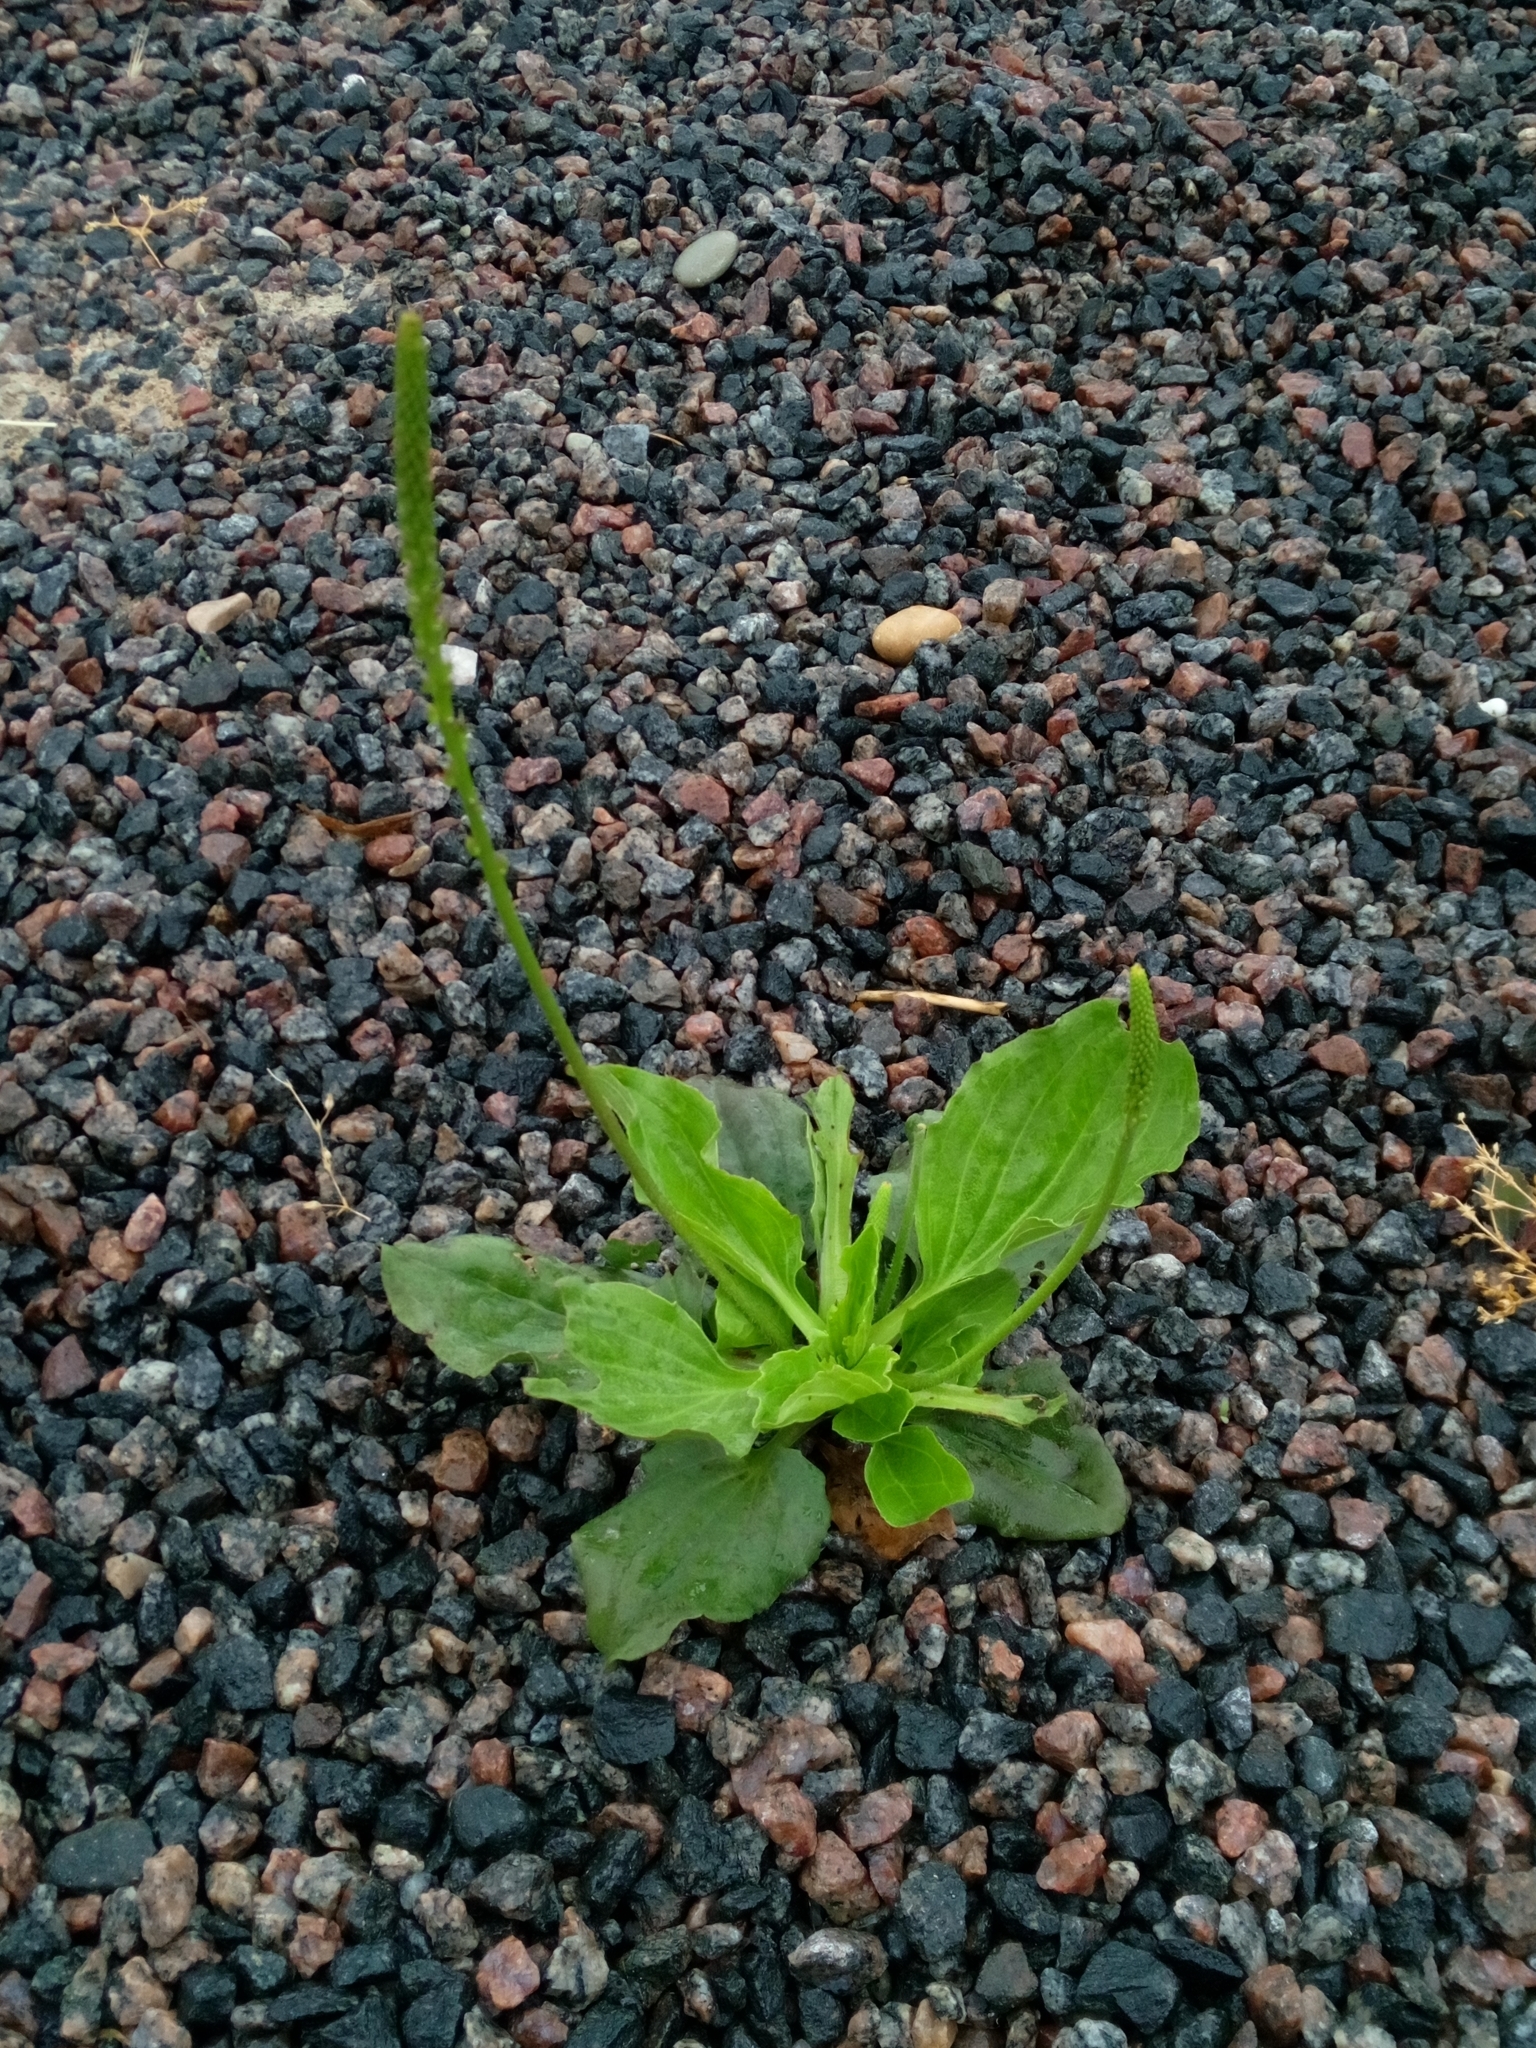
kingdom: Plantae
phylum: Tracheophyta
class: Magnoliopsida
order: Lamiales
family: Plantaginaceae
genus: Plantago
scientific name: Plantago major
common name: Common plantain
